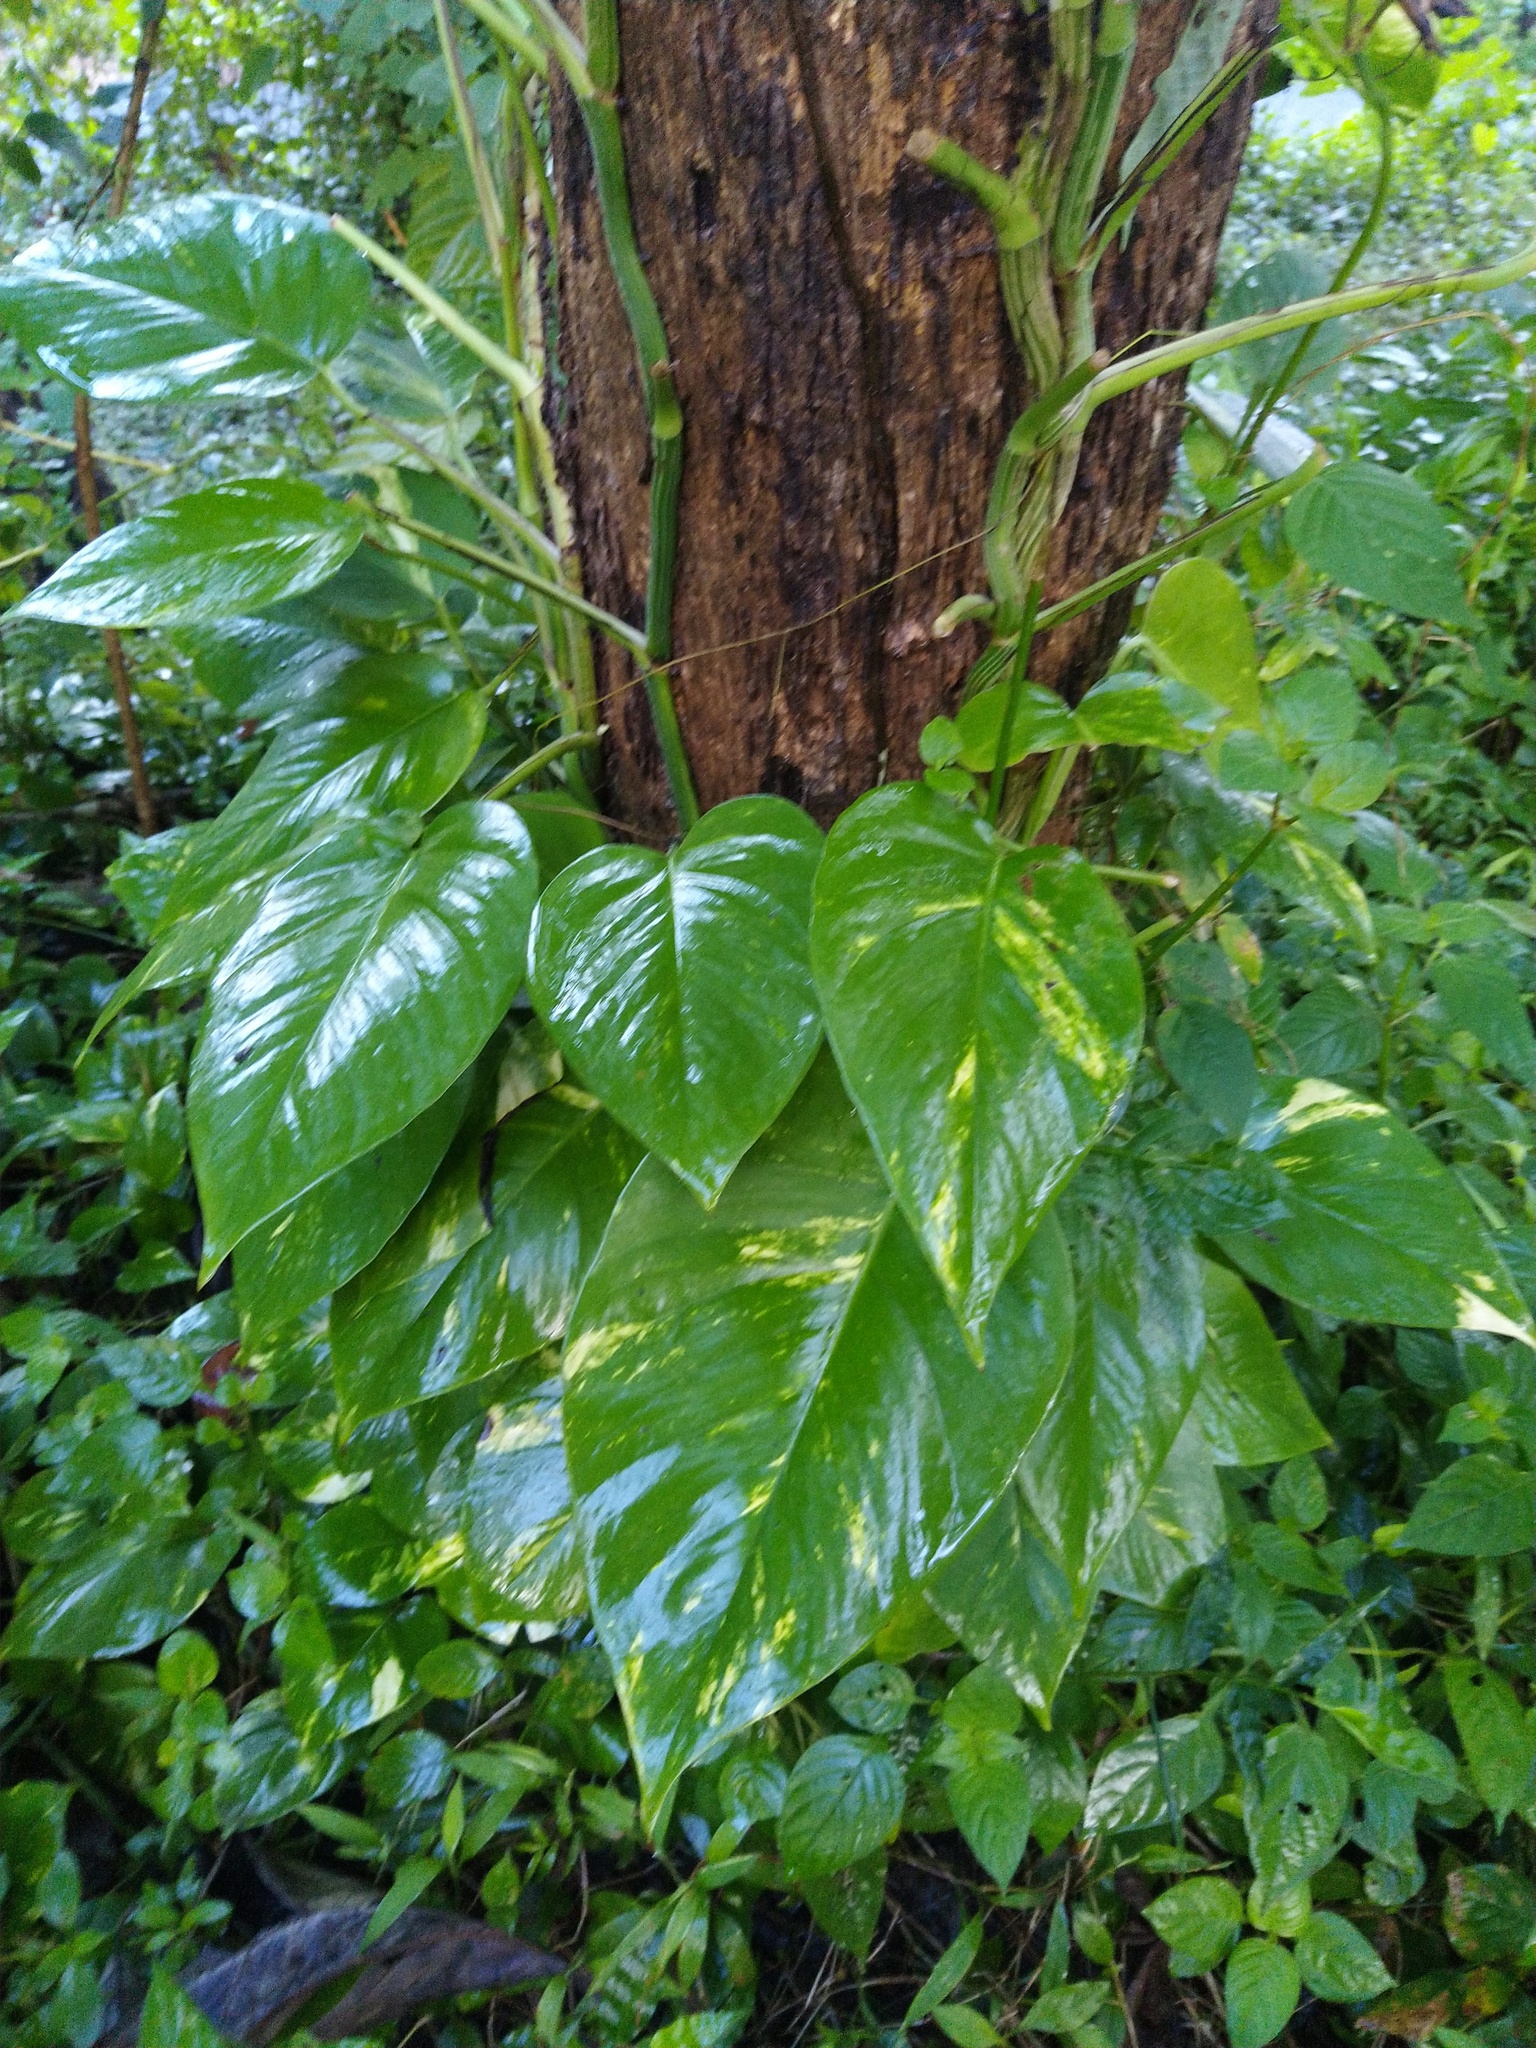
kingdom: Plantae
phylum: Tracheophyta
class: Liliopsida
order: Alismatales
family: Araceae
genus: Epipremnum
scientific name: Epipremnum aureum
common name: Golden hunter's-robe
